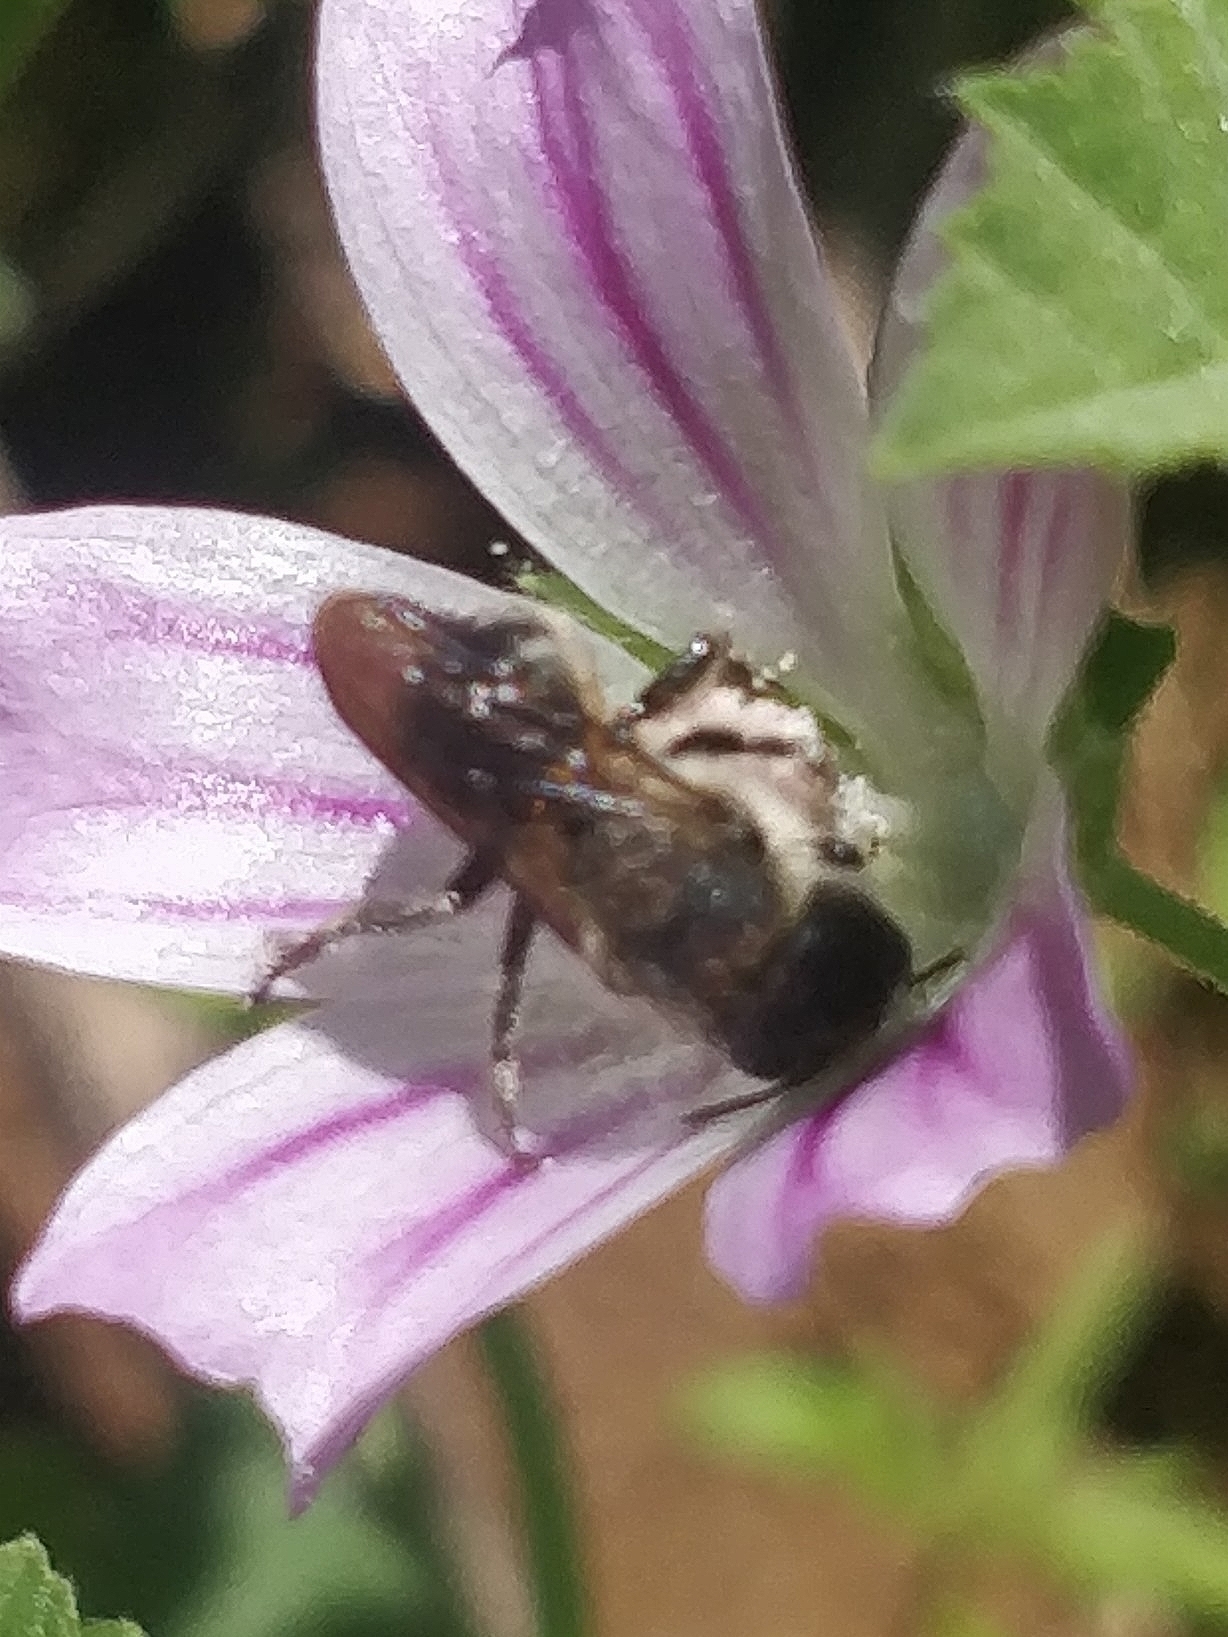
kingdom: Animalia
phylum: Arthropoda
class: Insecta
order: Hymenoptera
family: Megachilidae
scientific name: Megachilidae
